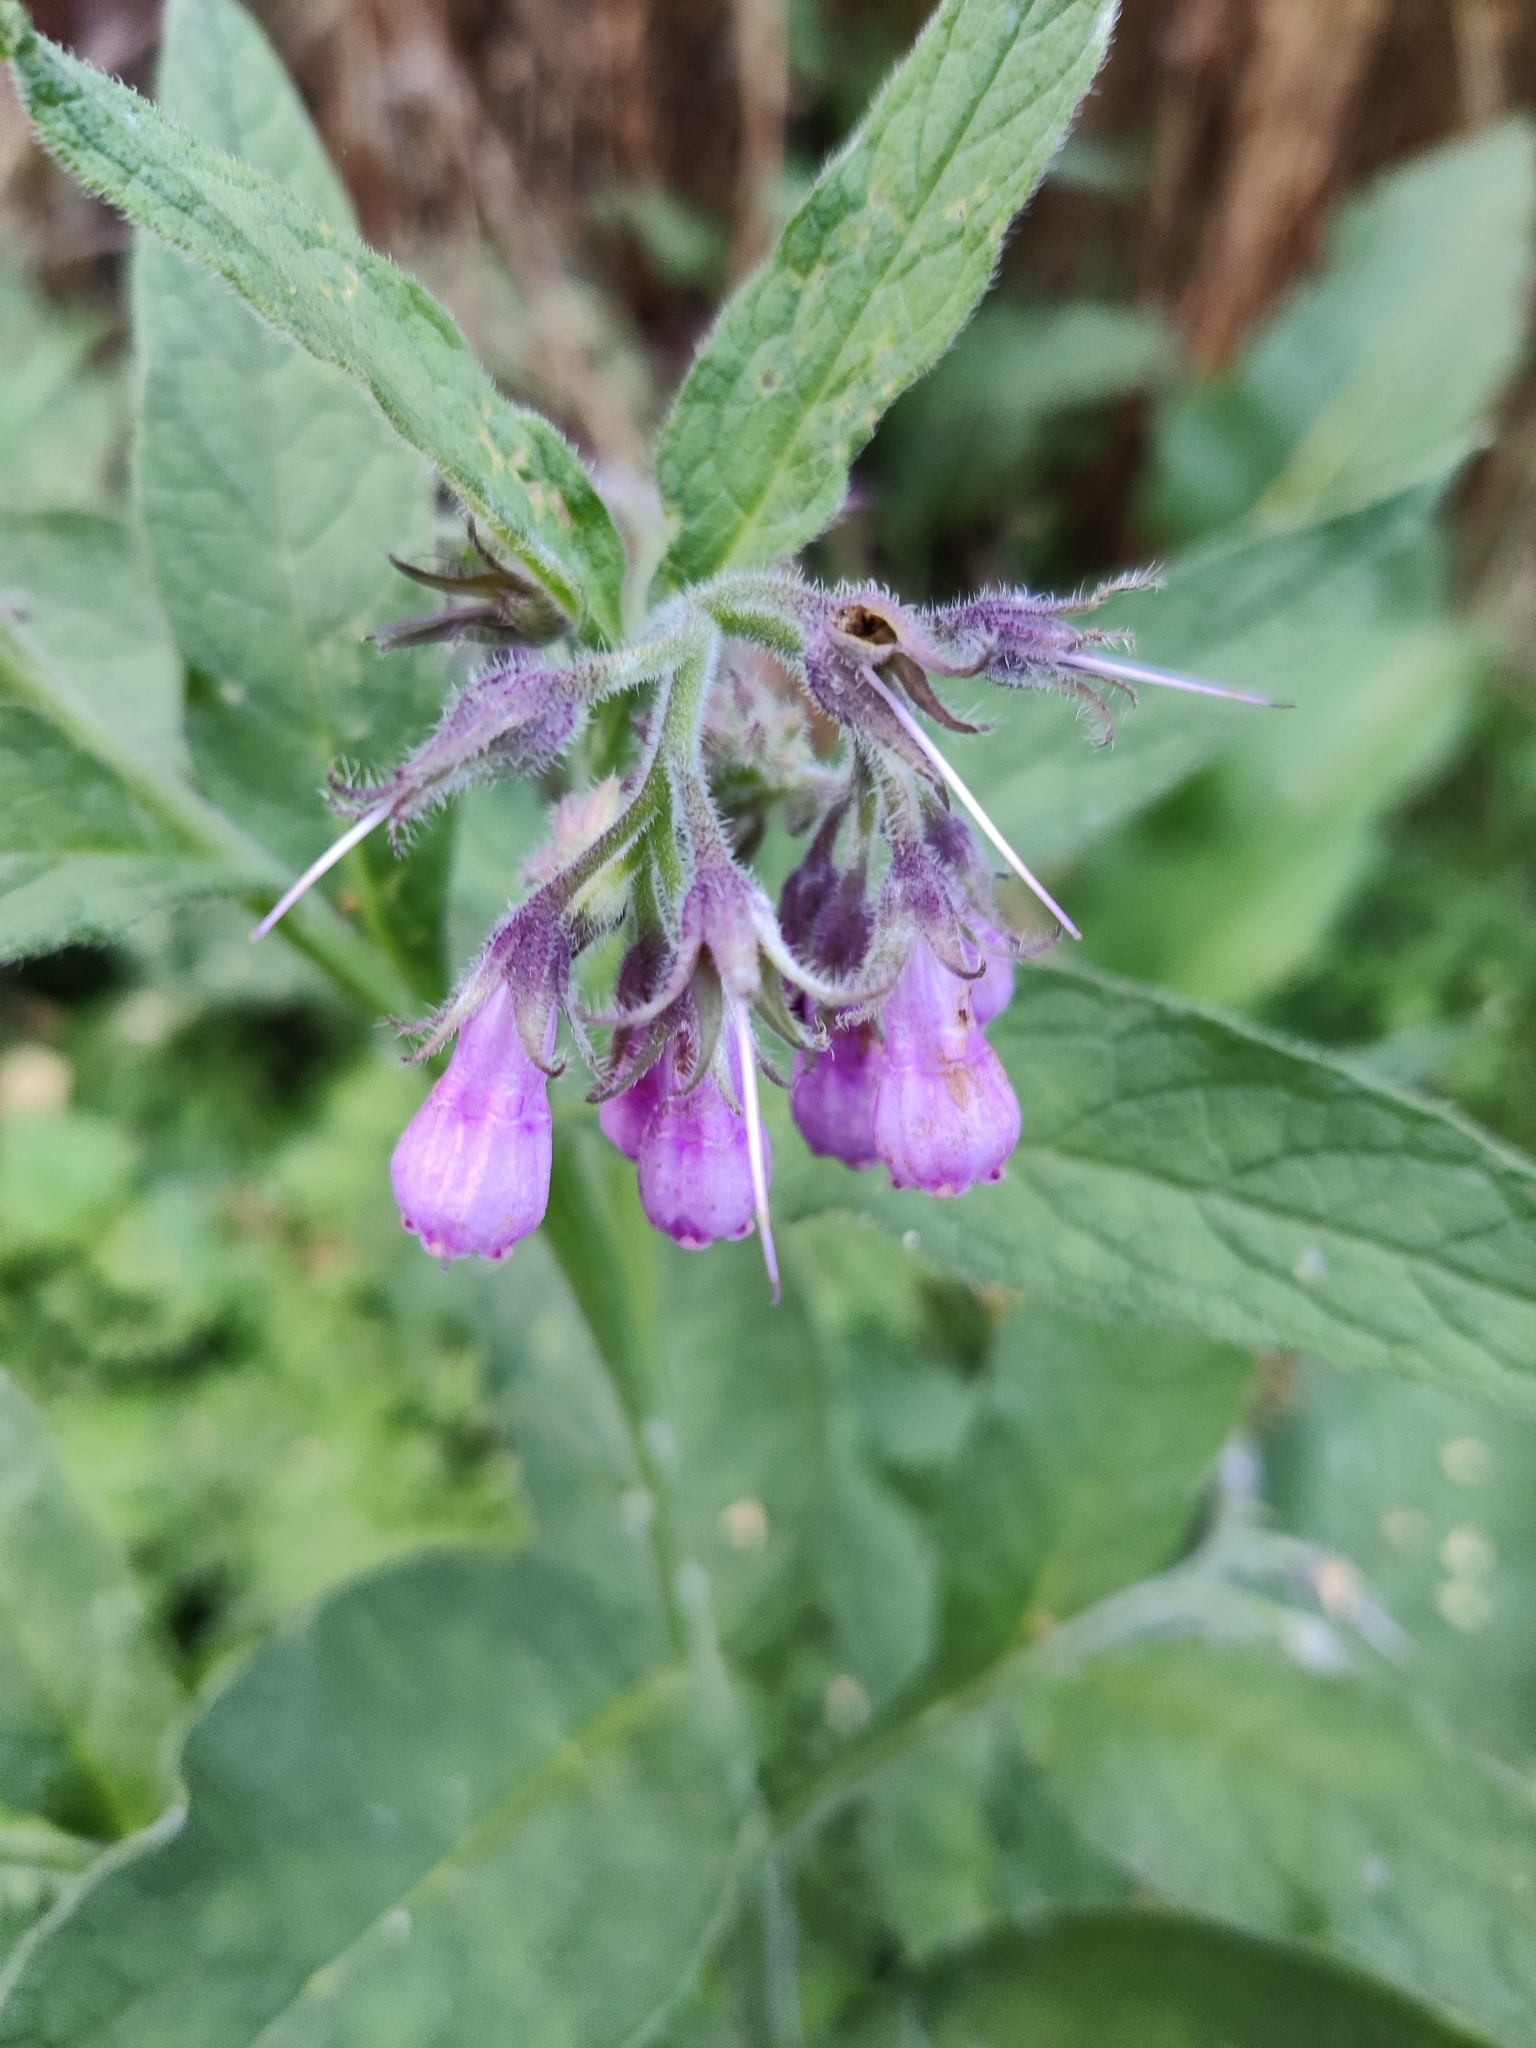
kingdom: Plantae
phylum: Tracheophyta
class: Magnoliopsida
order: Boraginales
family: Boraginaceae
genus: Symphytum
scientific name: Symphytum officinale
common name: Common comfrey
